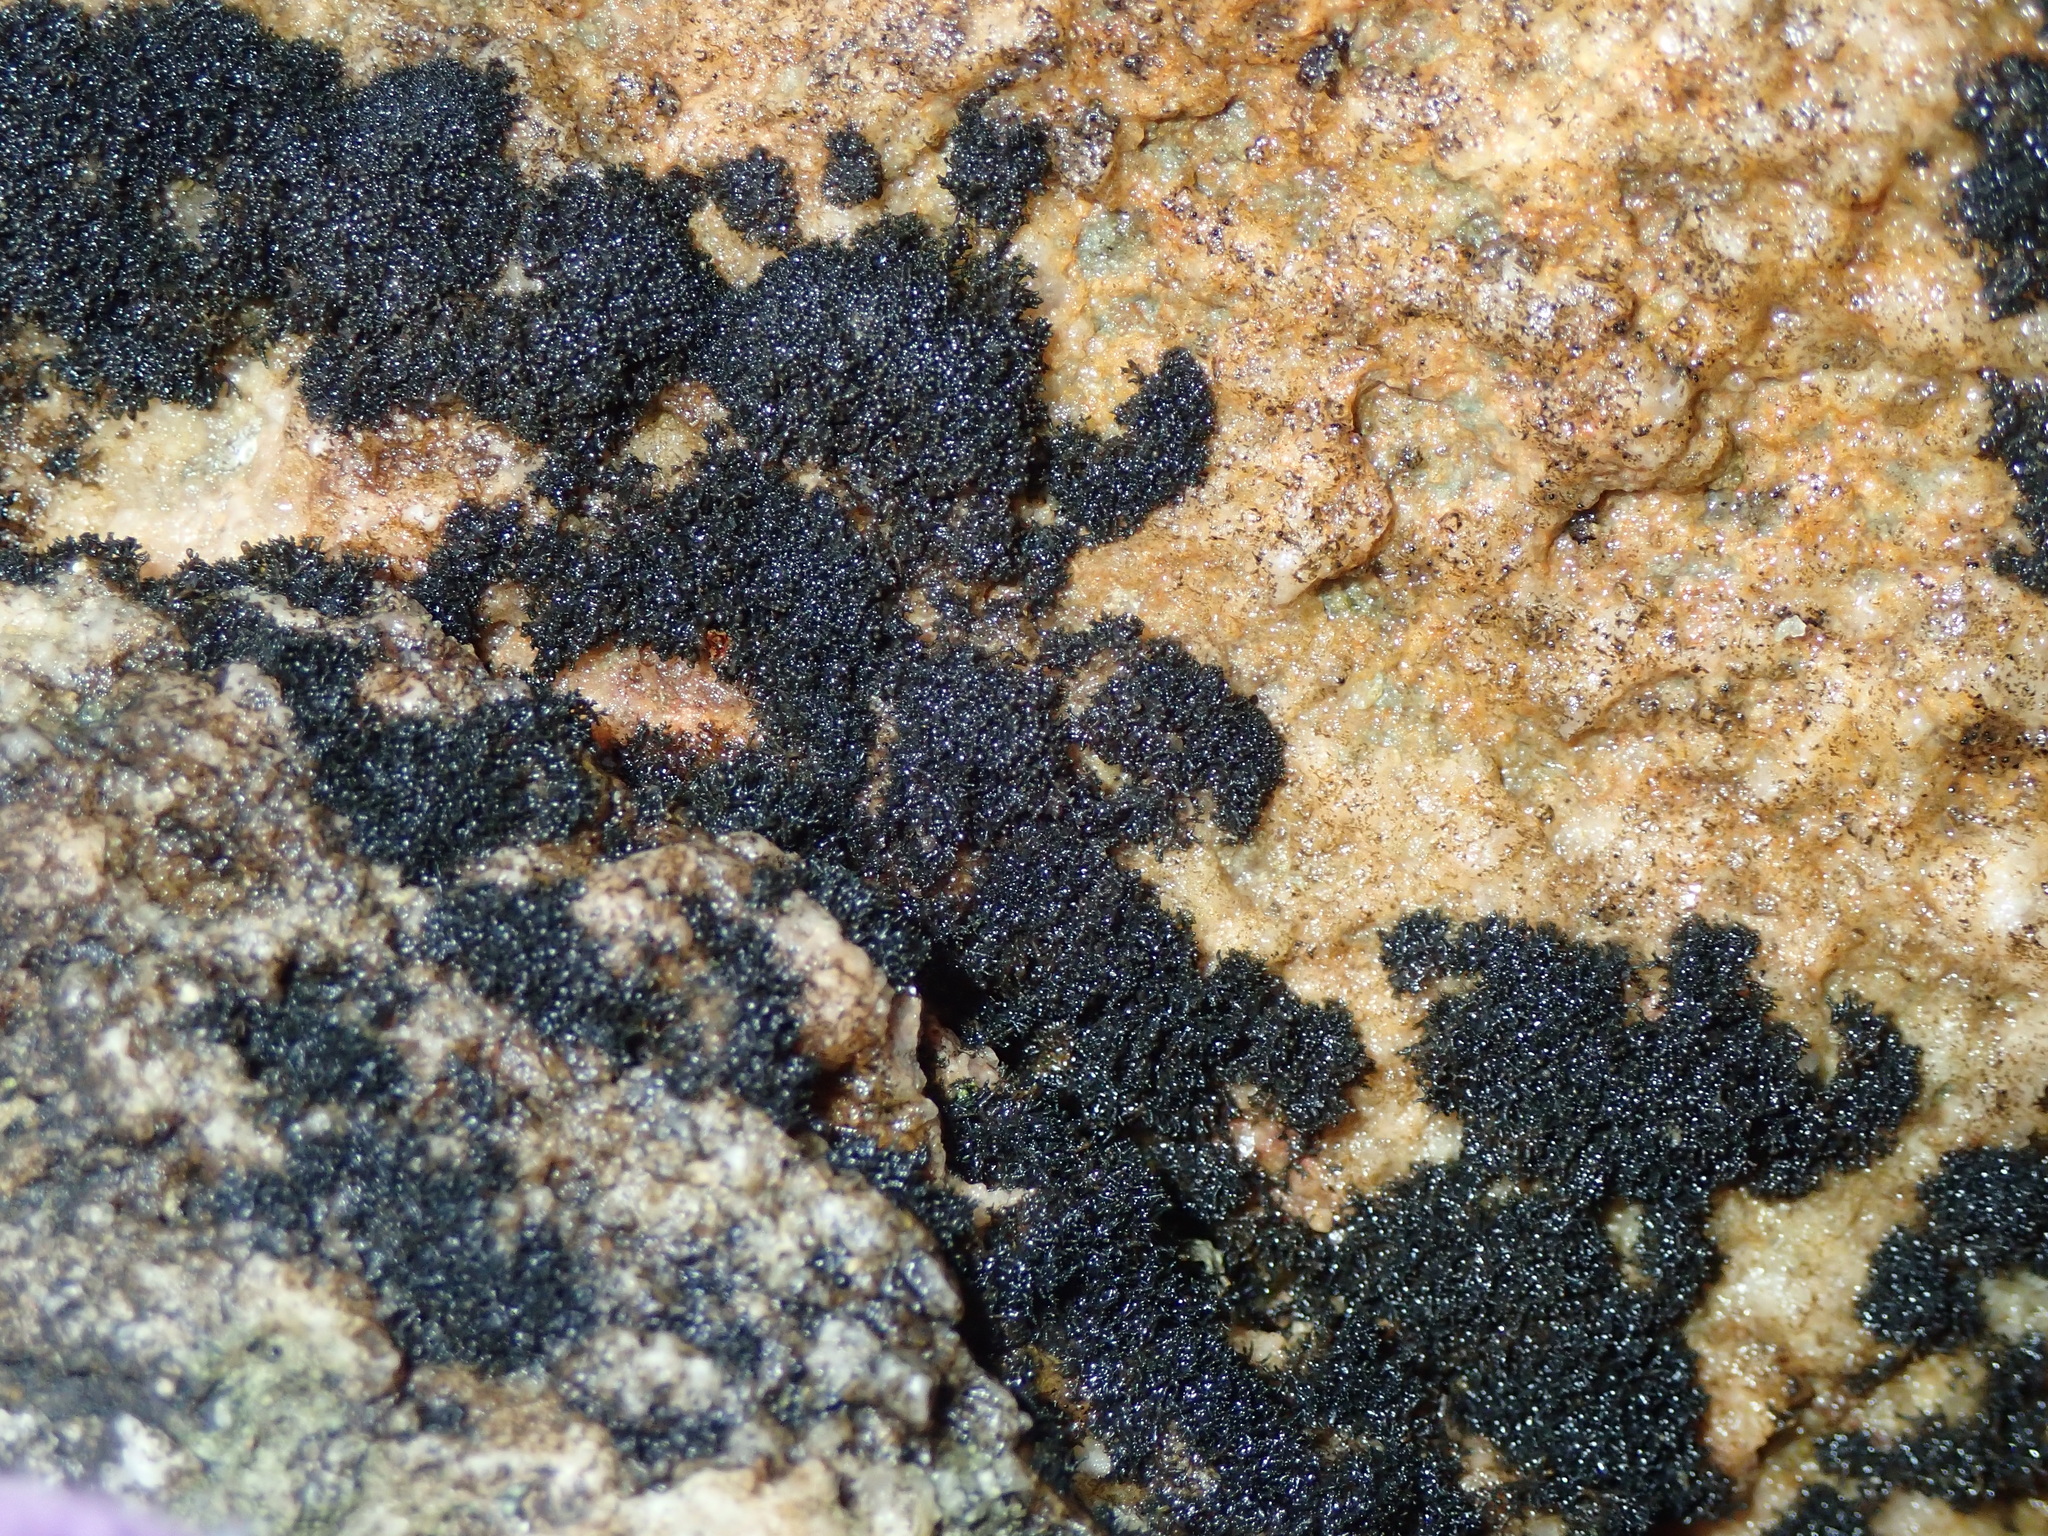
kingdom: Fungi
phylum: Ascomycota
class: Lichinomycetes
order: Lichinales
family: Lichinaceae
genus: Lichina
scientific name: Lichina confinis
